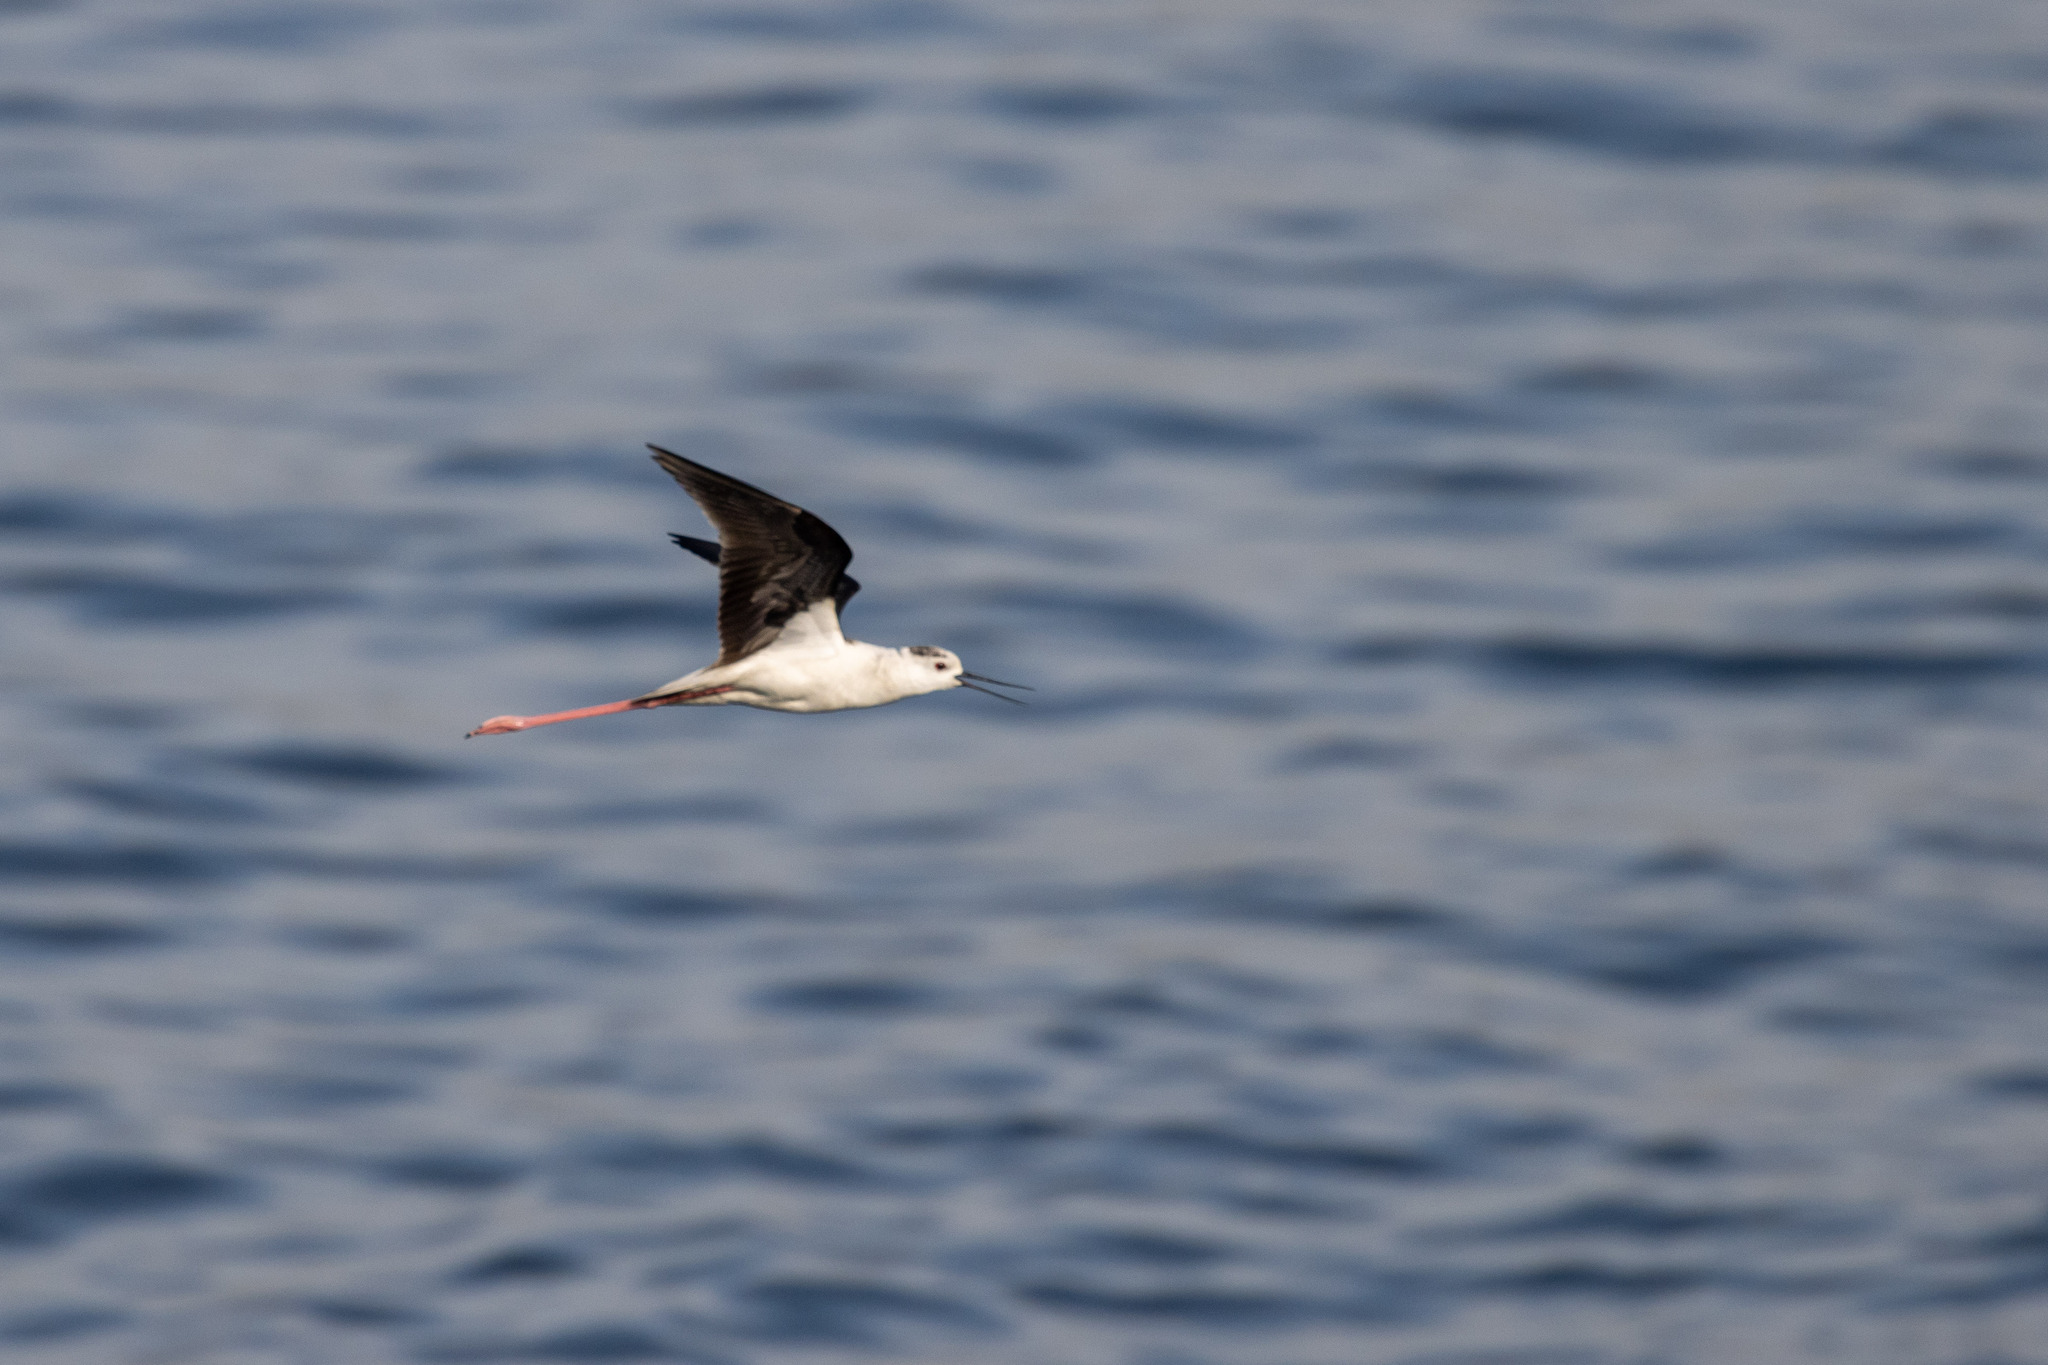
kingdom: Animalia
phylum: Chordata
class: Aves
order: Charadriiformes
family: Recurvirostridae
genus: Himantopus
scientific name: Himantopus himantopus
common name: Black-winged stilt
